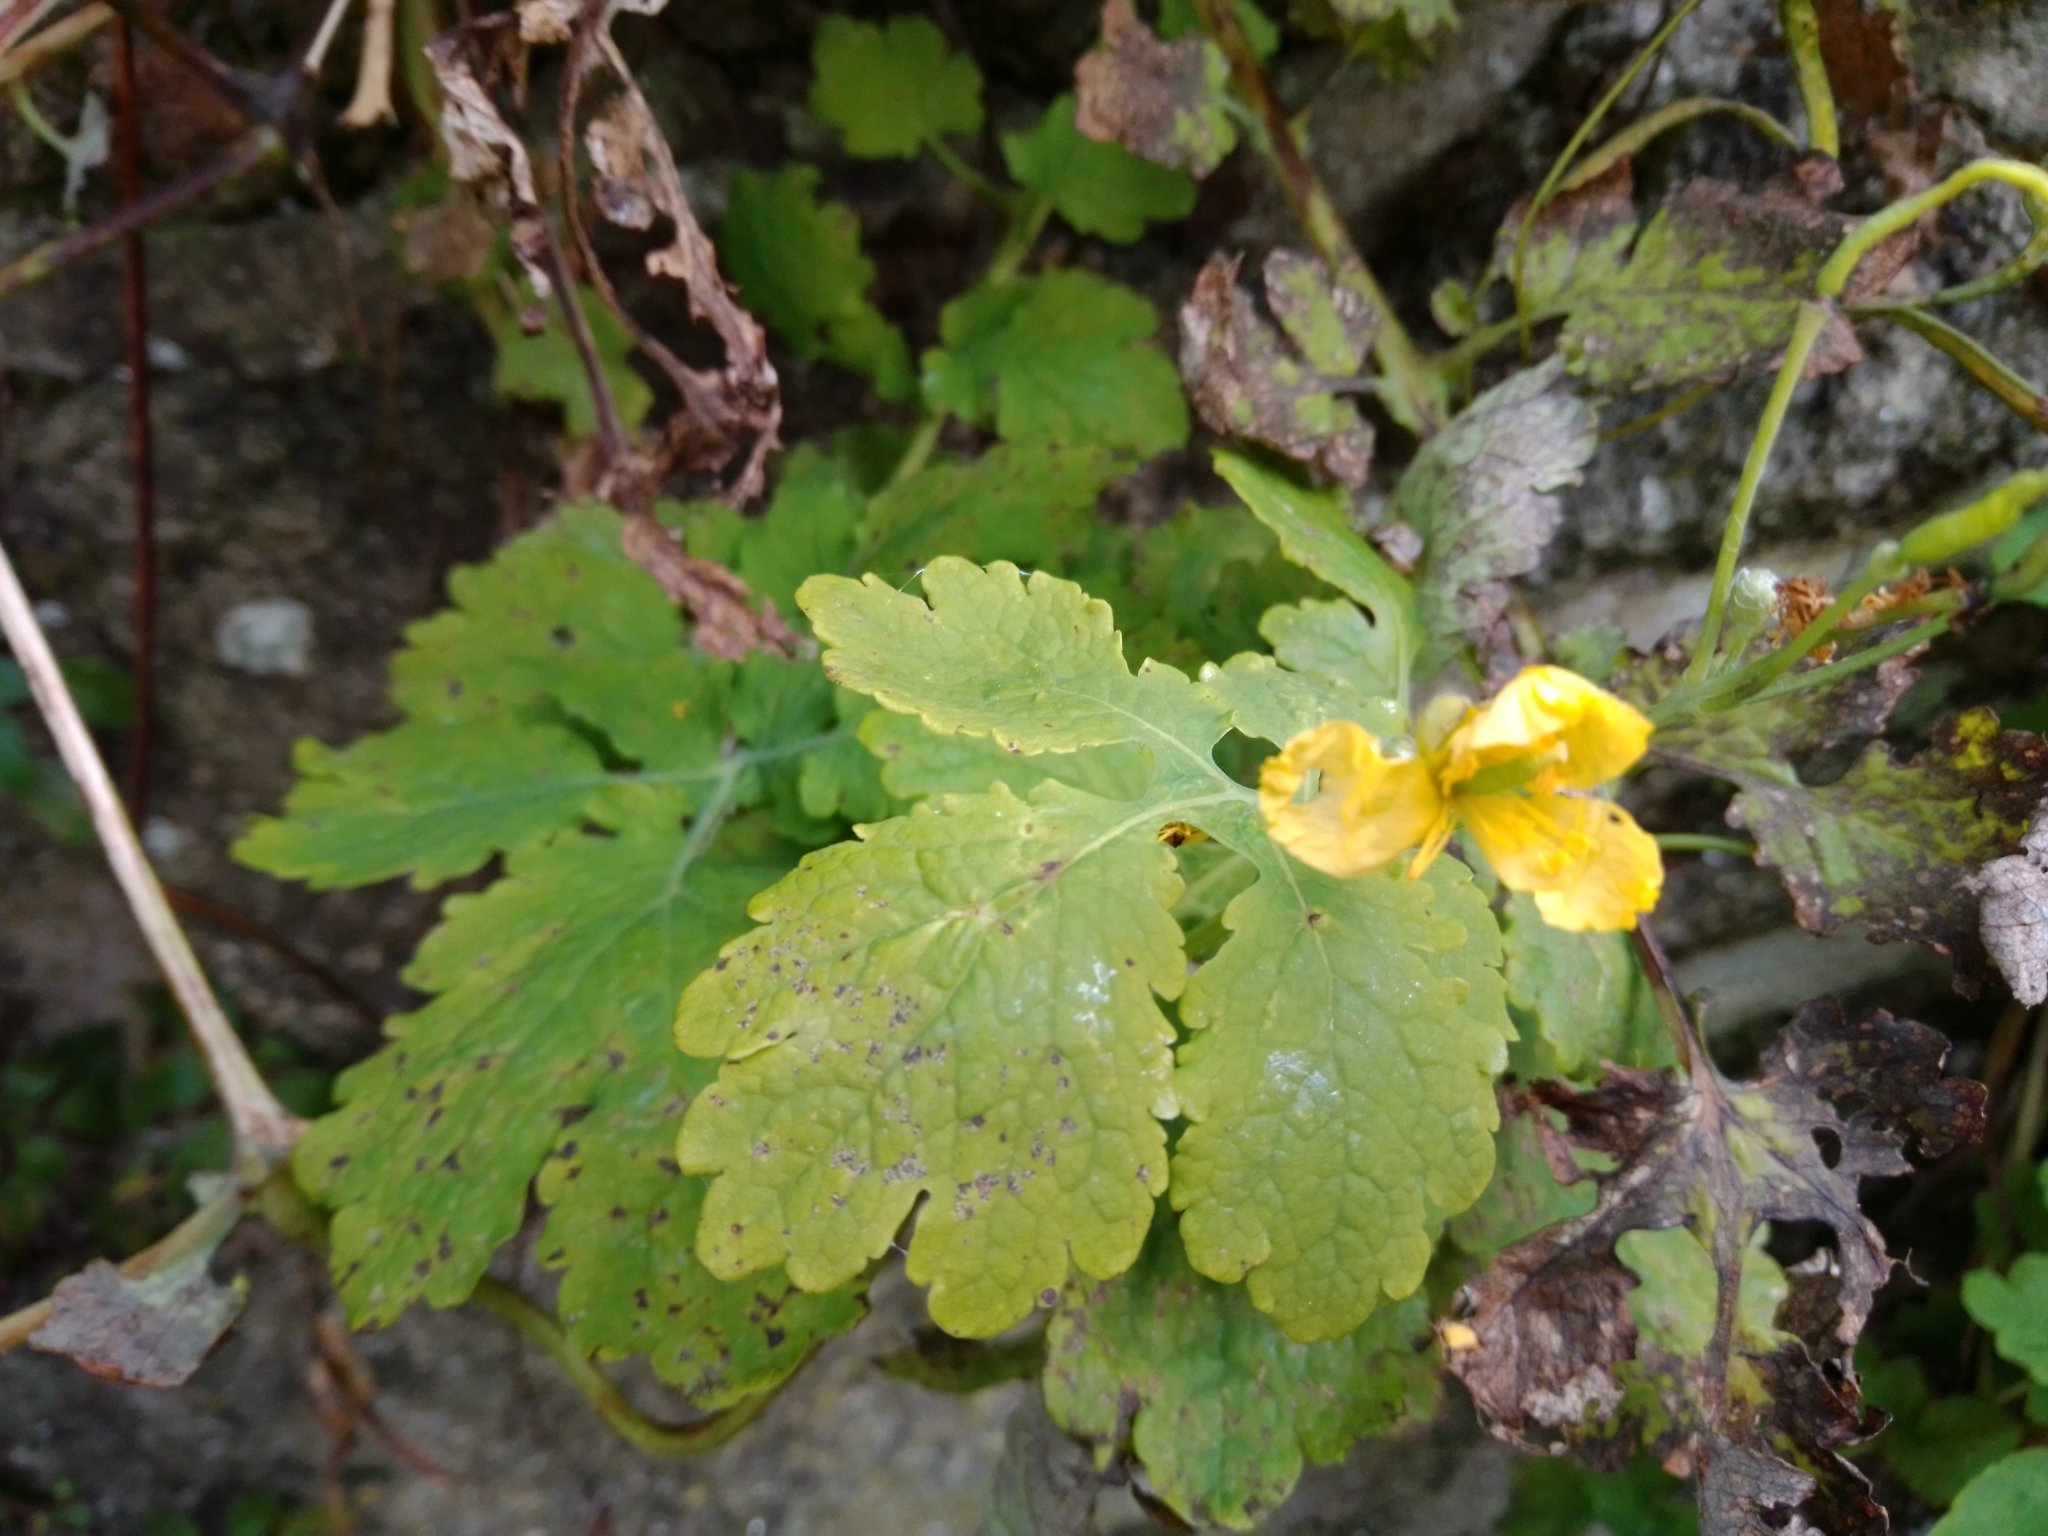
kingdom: Plantae
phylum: Tracheophyta
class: Magnoliopsida
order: Ranunculales
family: Papaveraceae
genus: Chelidonium
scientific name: Chelidonium majus
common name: Greater celandine
